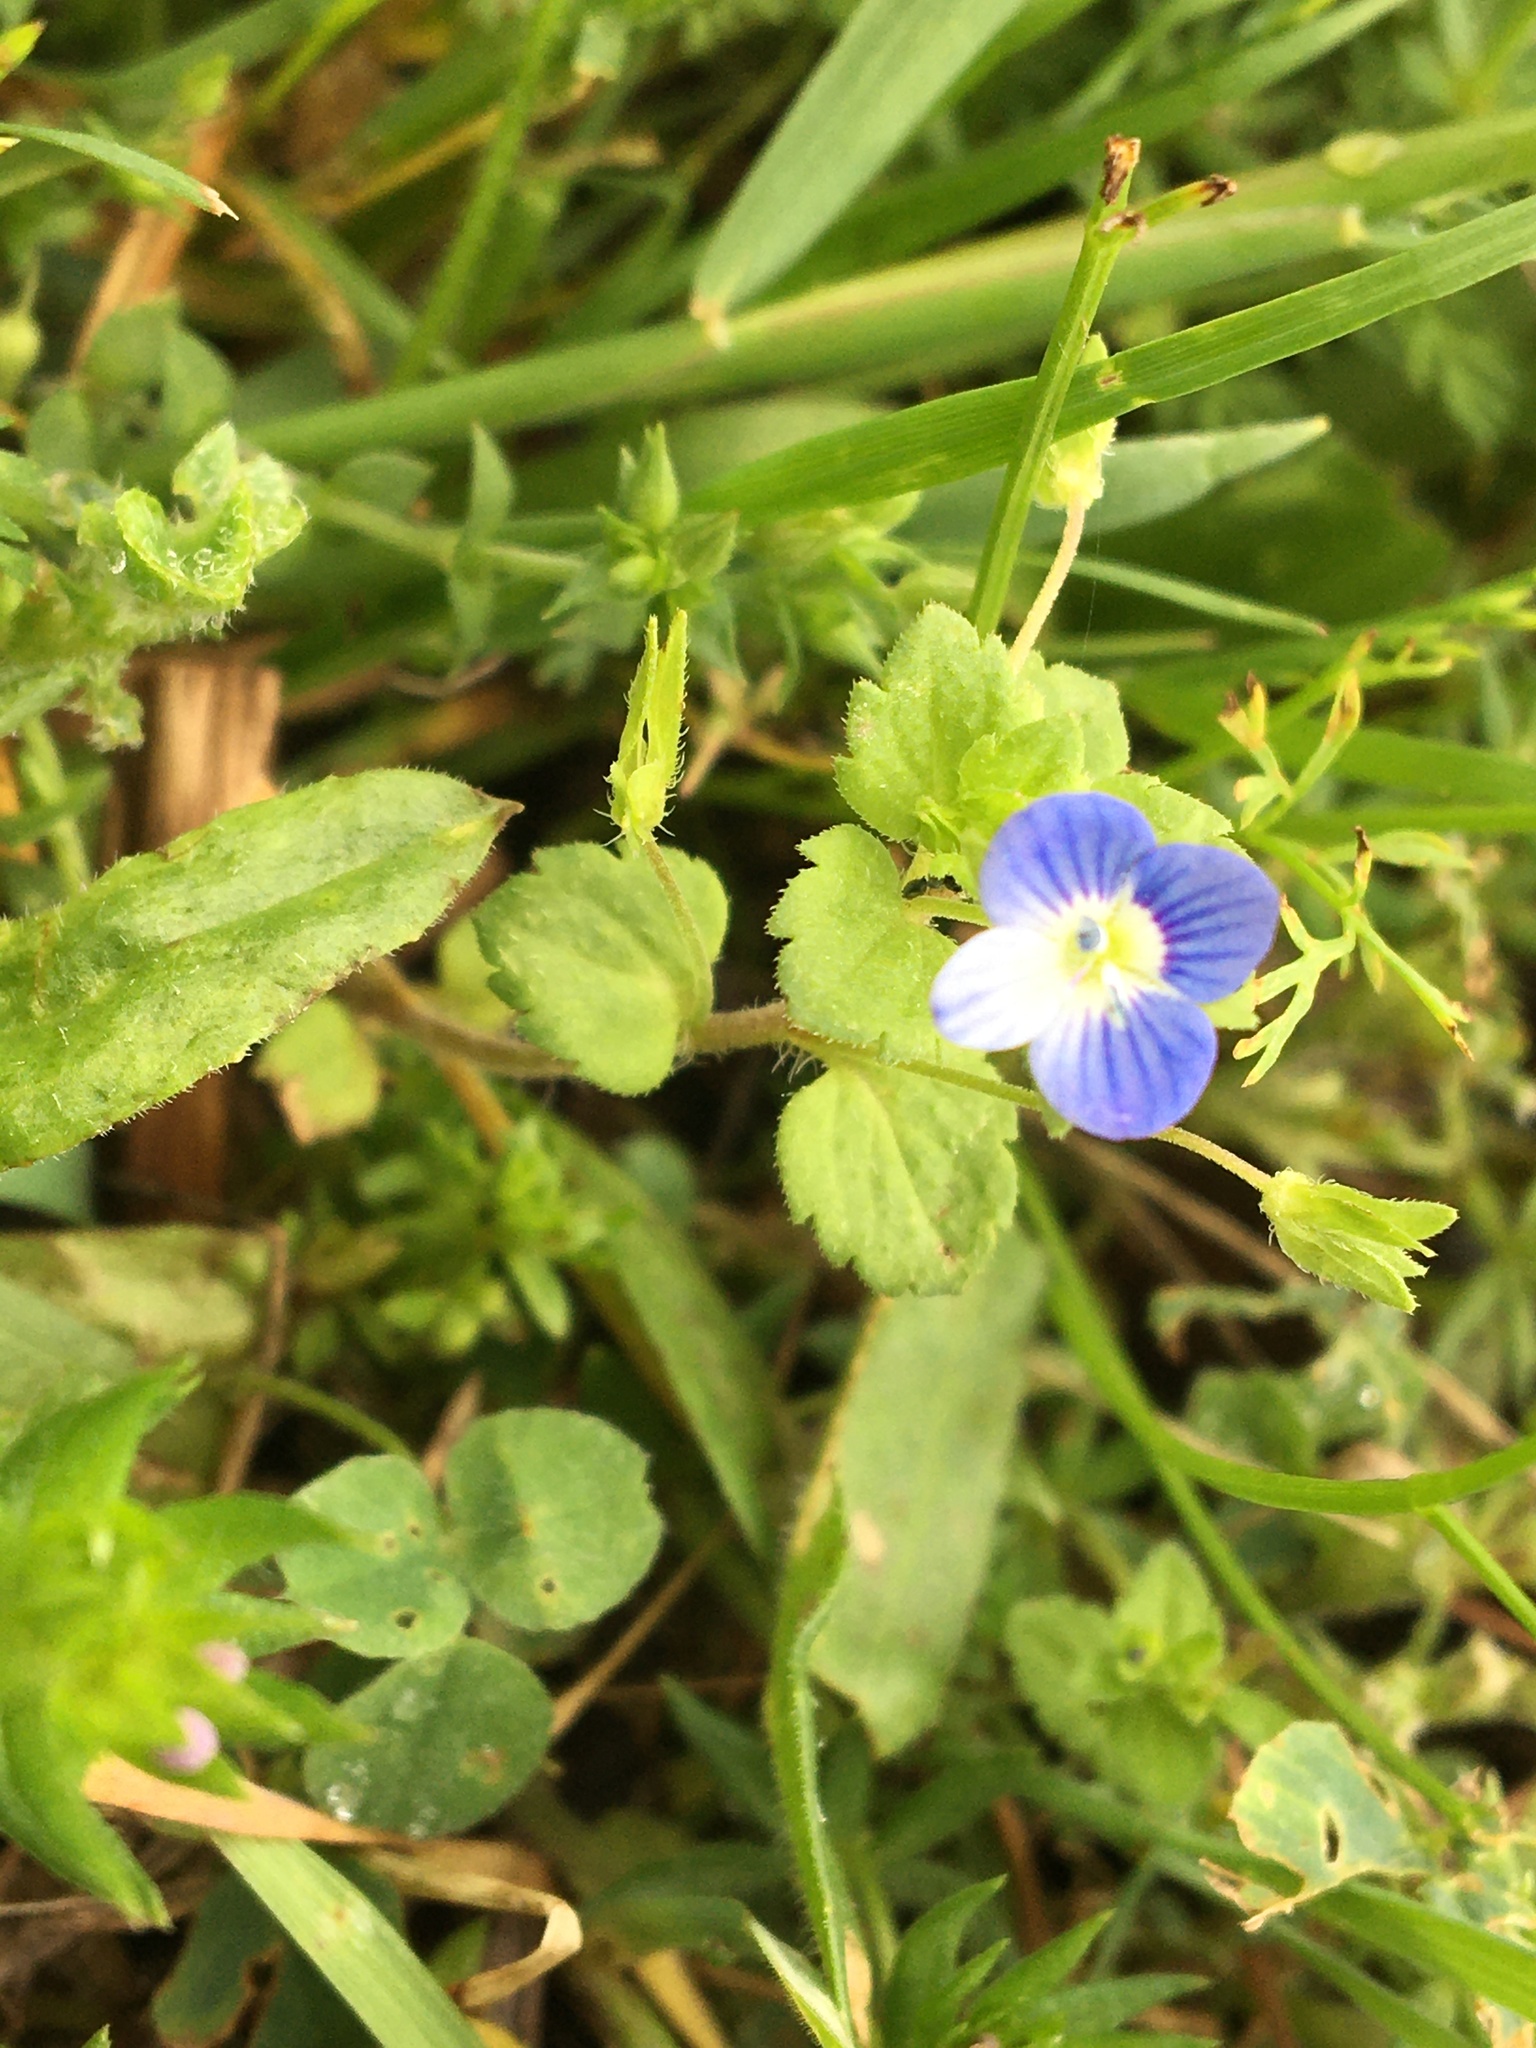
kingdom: Plantae
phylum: Tracheophyta
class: Magnoliopsida
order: Lamiales
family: Plantaginaceae
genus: Veronica
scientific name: Veronica persica
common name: Common field-speedwell
